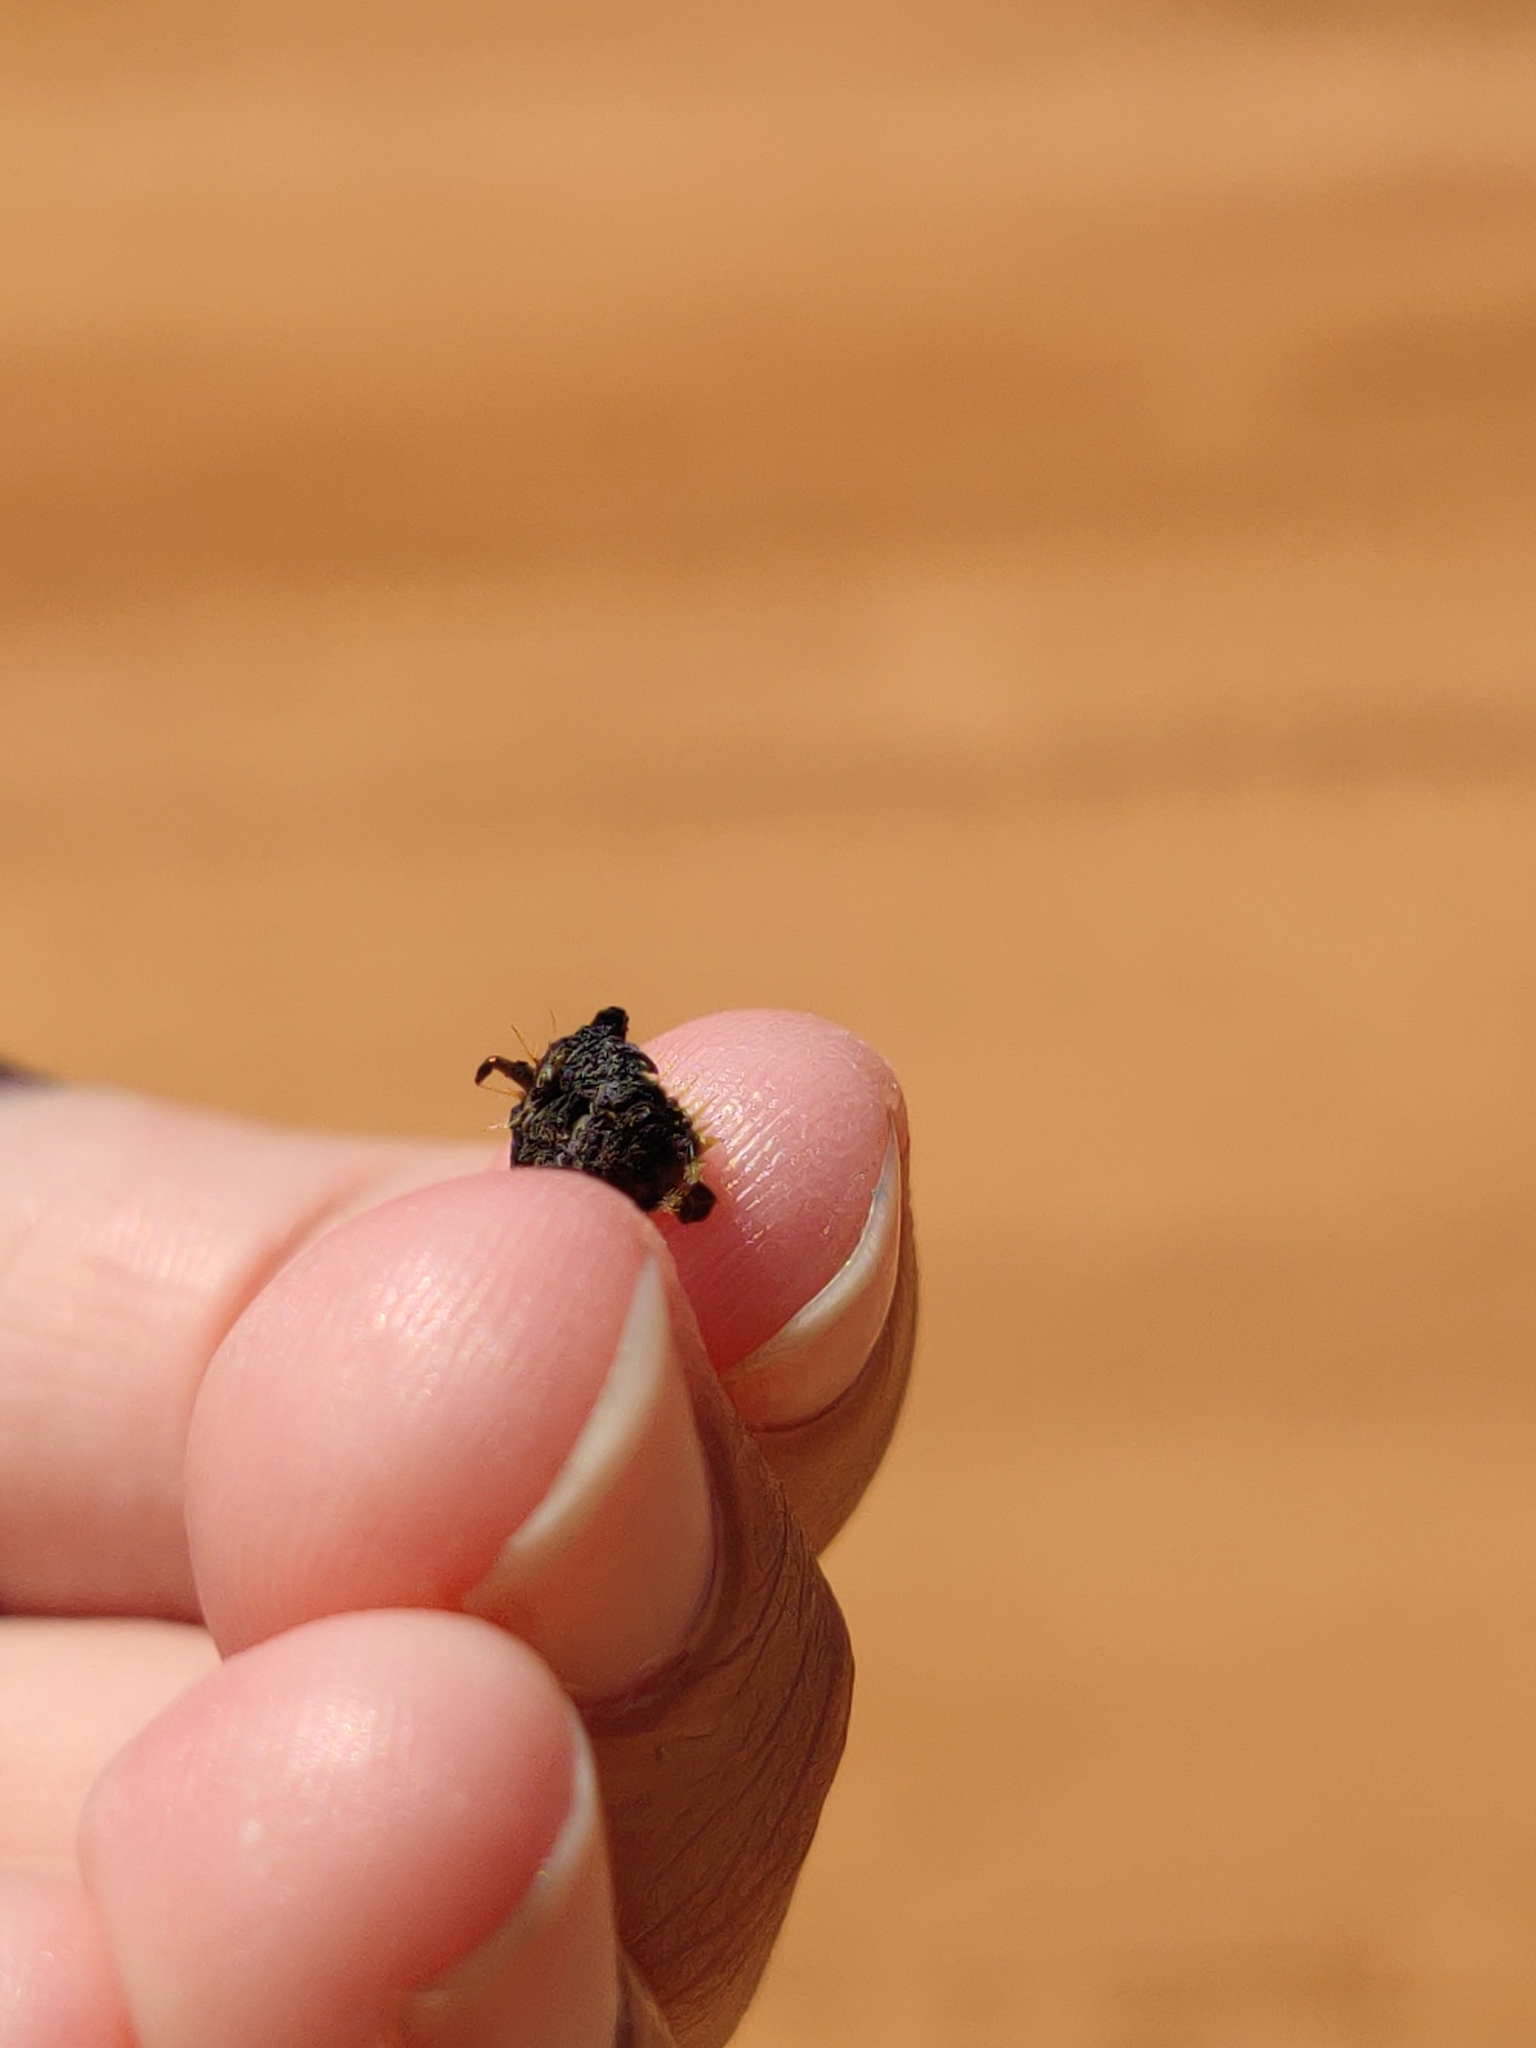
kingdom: Animalia
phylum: Arthropoda
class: Insecta
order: Coleoptera
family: Chrysomelidae
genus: Charidotella
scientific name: Charidotella sexpunctata
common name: Golden tortoise beetle
